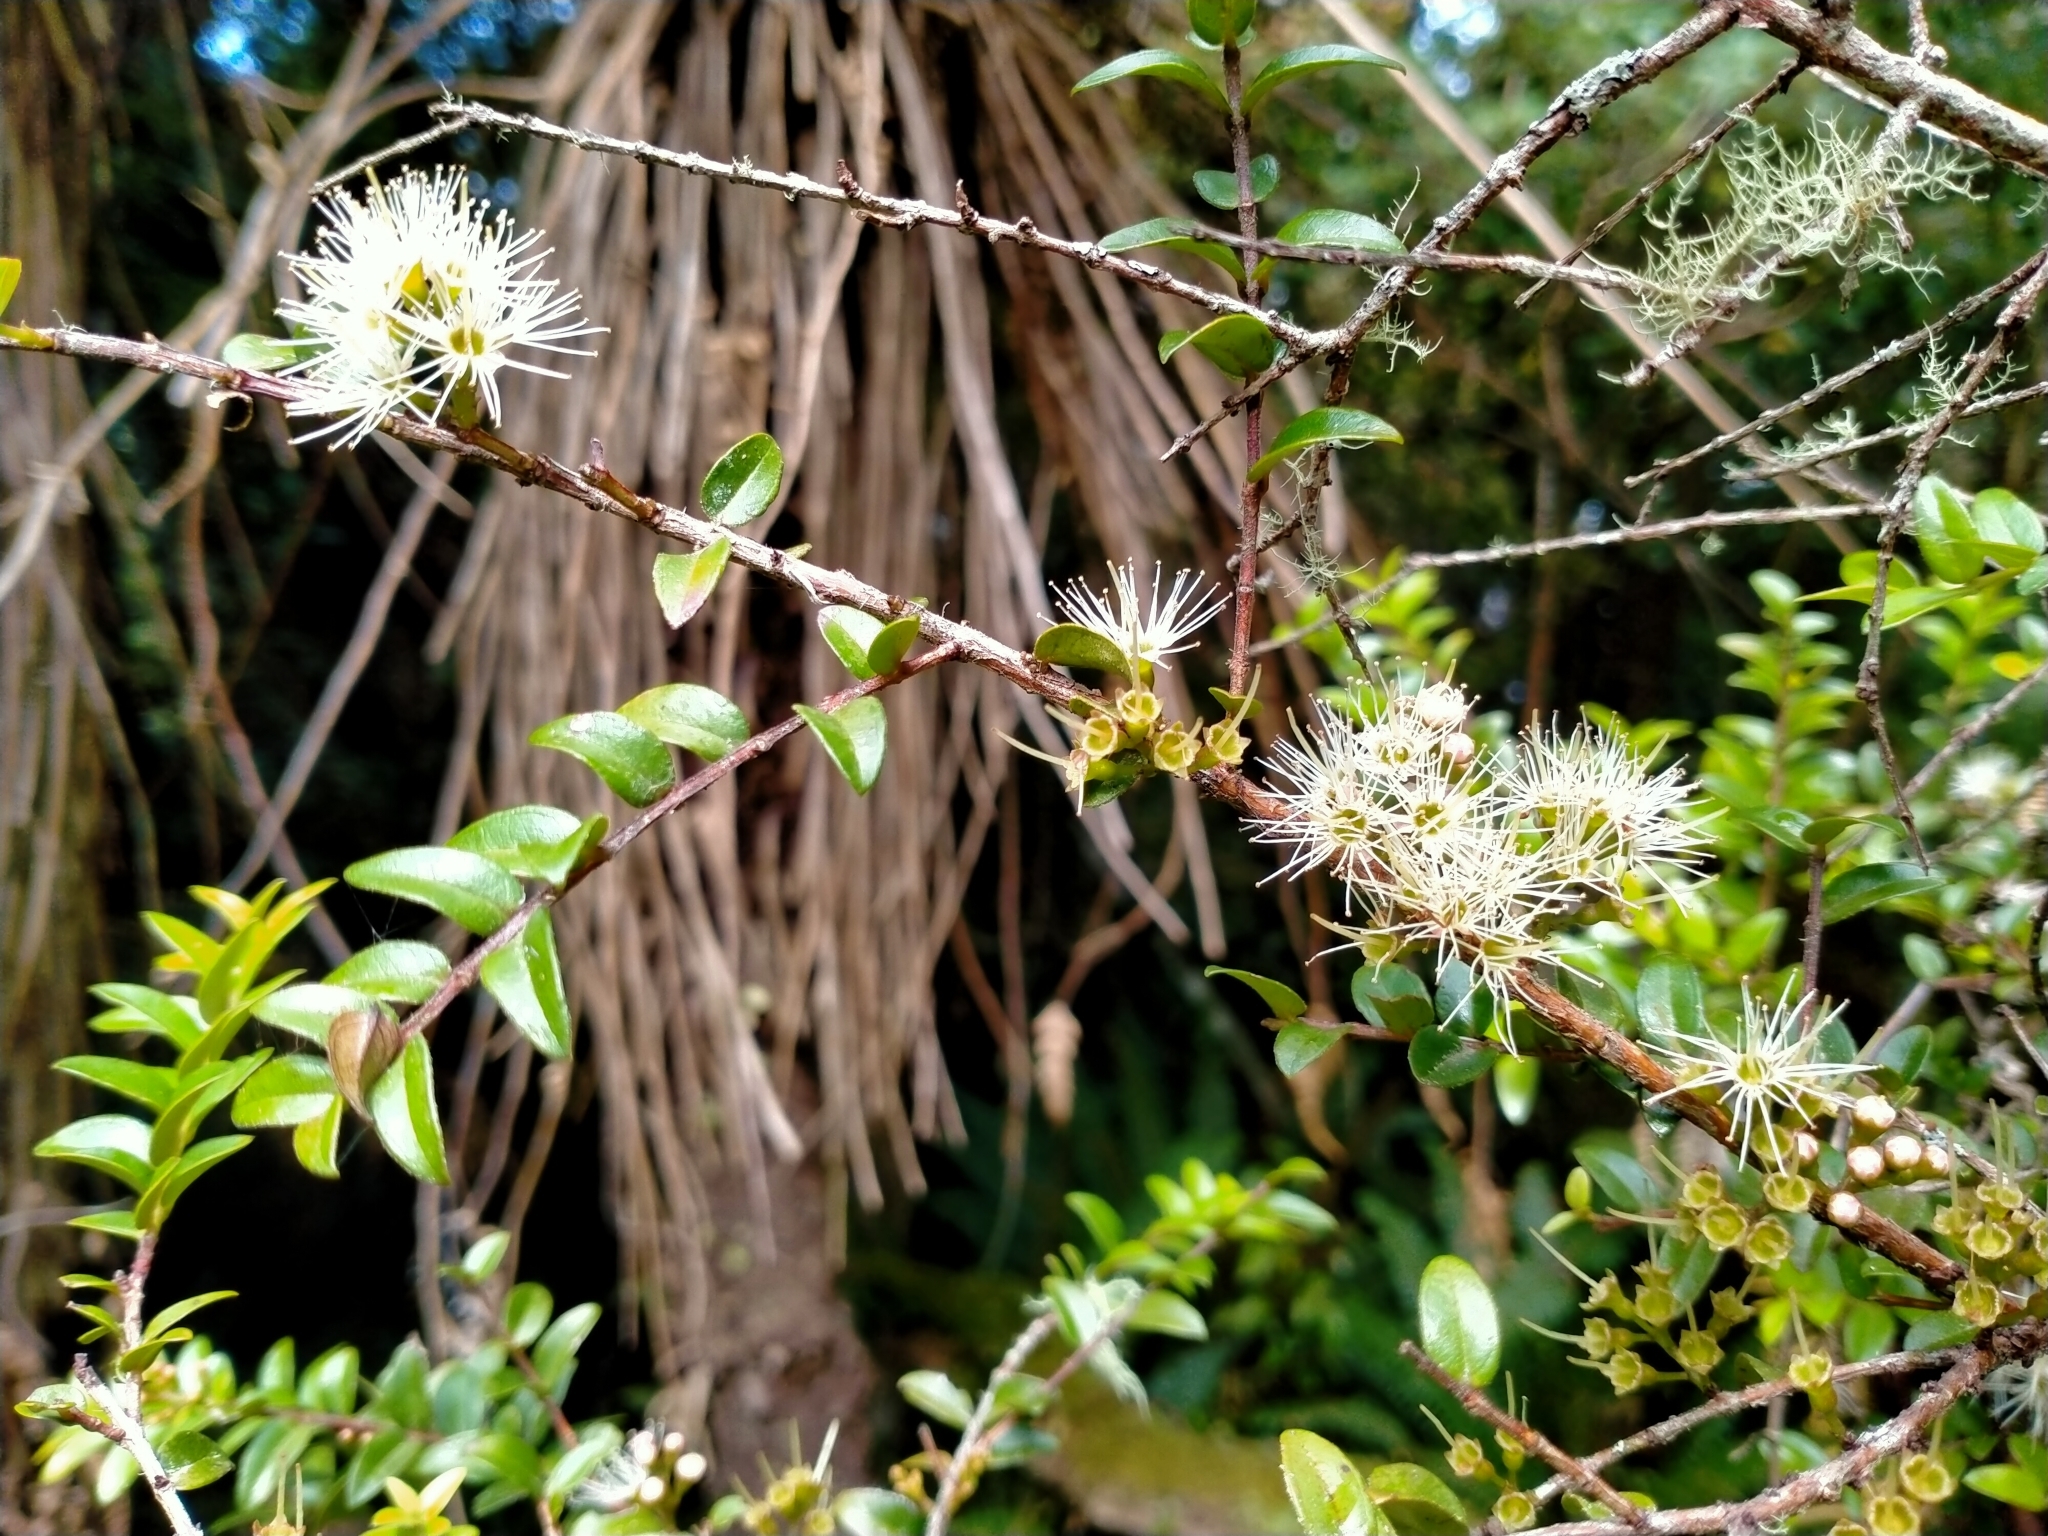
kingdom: Plantae
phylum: Tracheophyta
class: Magnoliopsida
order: Myrtales
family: Myrtaceae
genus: Metrosideros
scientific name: Metrosideros diffusa
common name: Small ratavine
